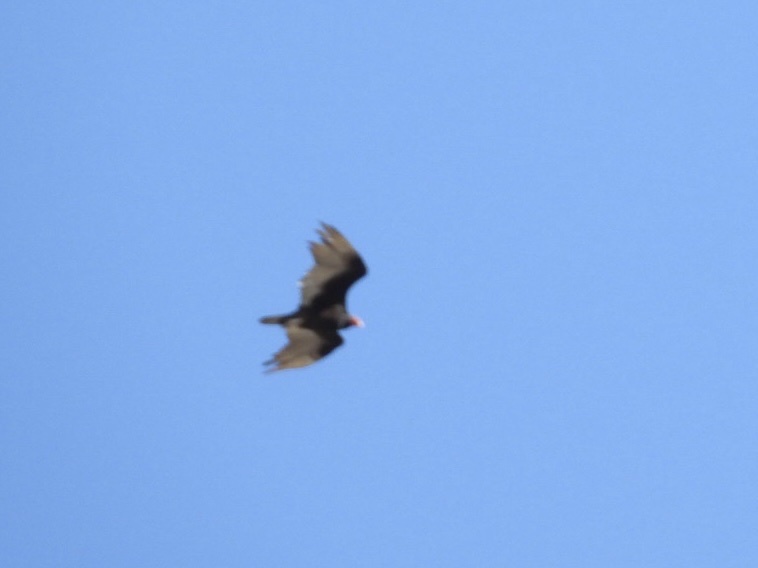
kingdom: Animalia
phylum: Chordata
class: Aves
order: Accipitriformes
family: Cathartidae
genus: Cathartes
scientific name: Cathartes aura
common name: Turkey vulture
